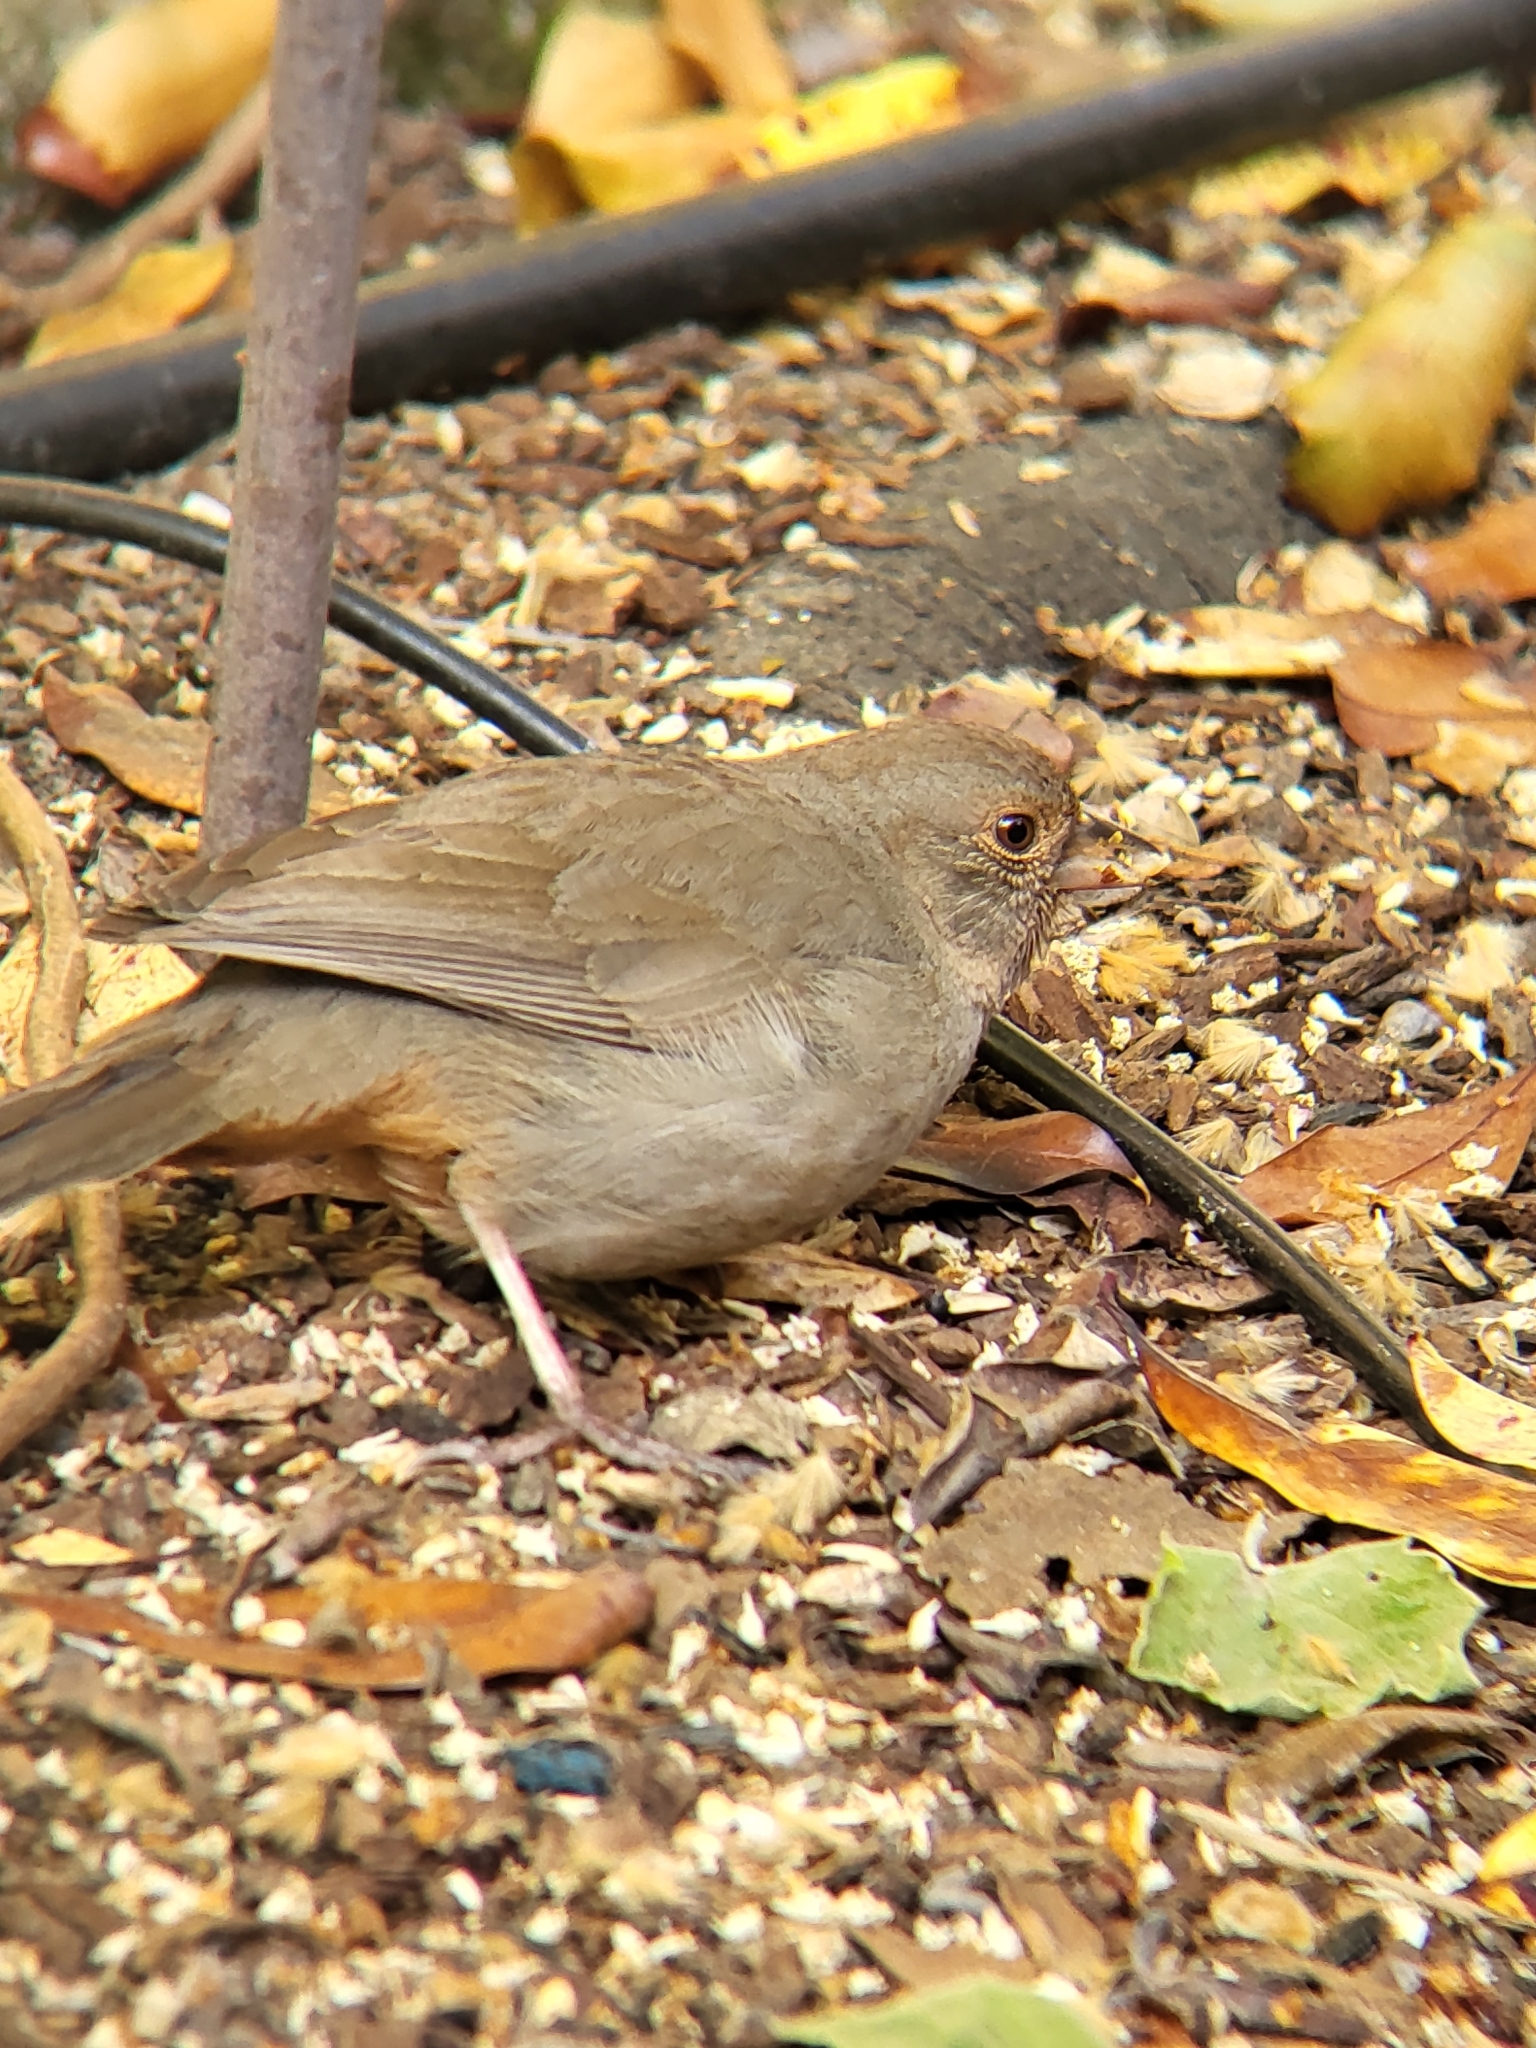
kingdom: Animalia
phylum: Chordata
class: Aves
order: Passeriformes
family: Passerellidae
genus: Melozone
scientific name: Melozone crissalis
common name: California towhee
